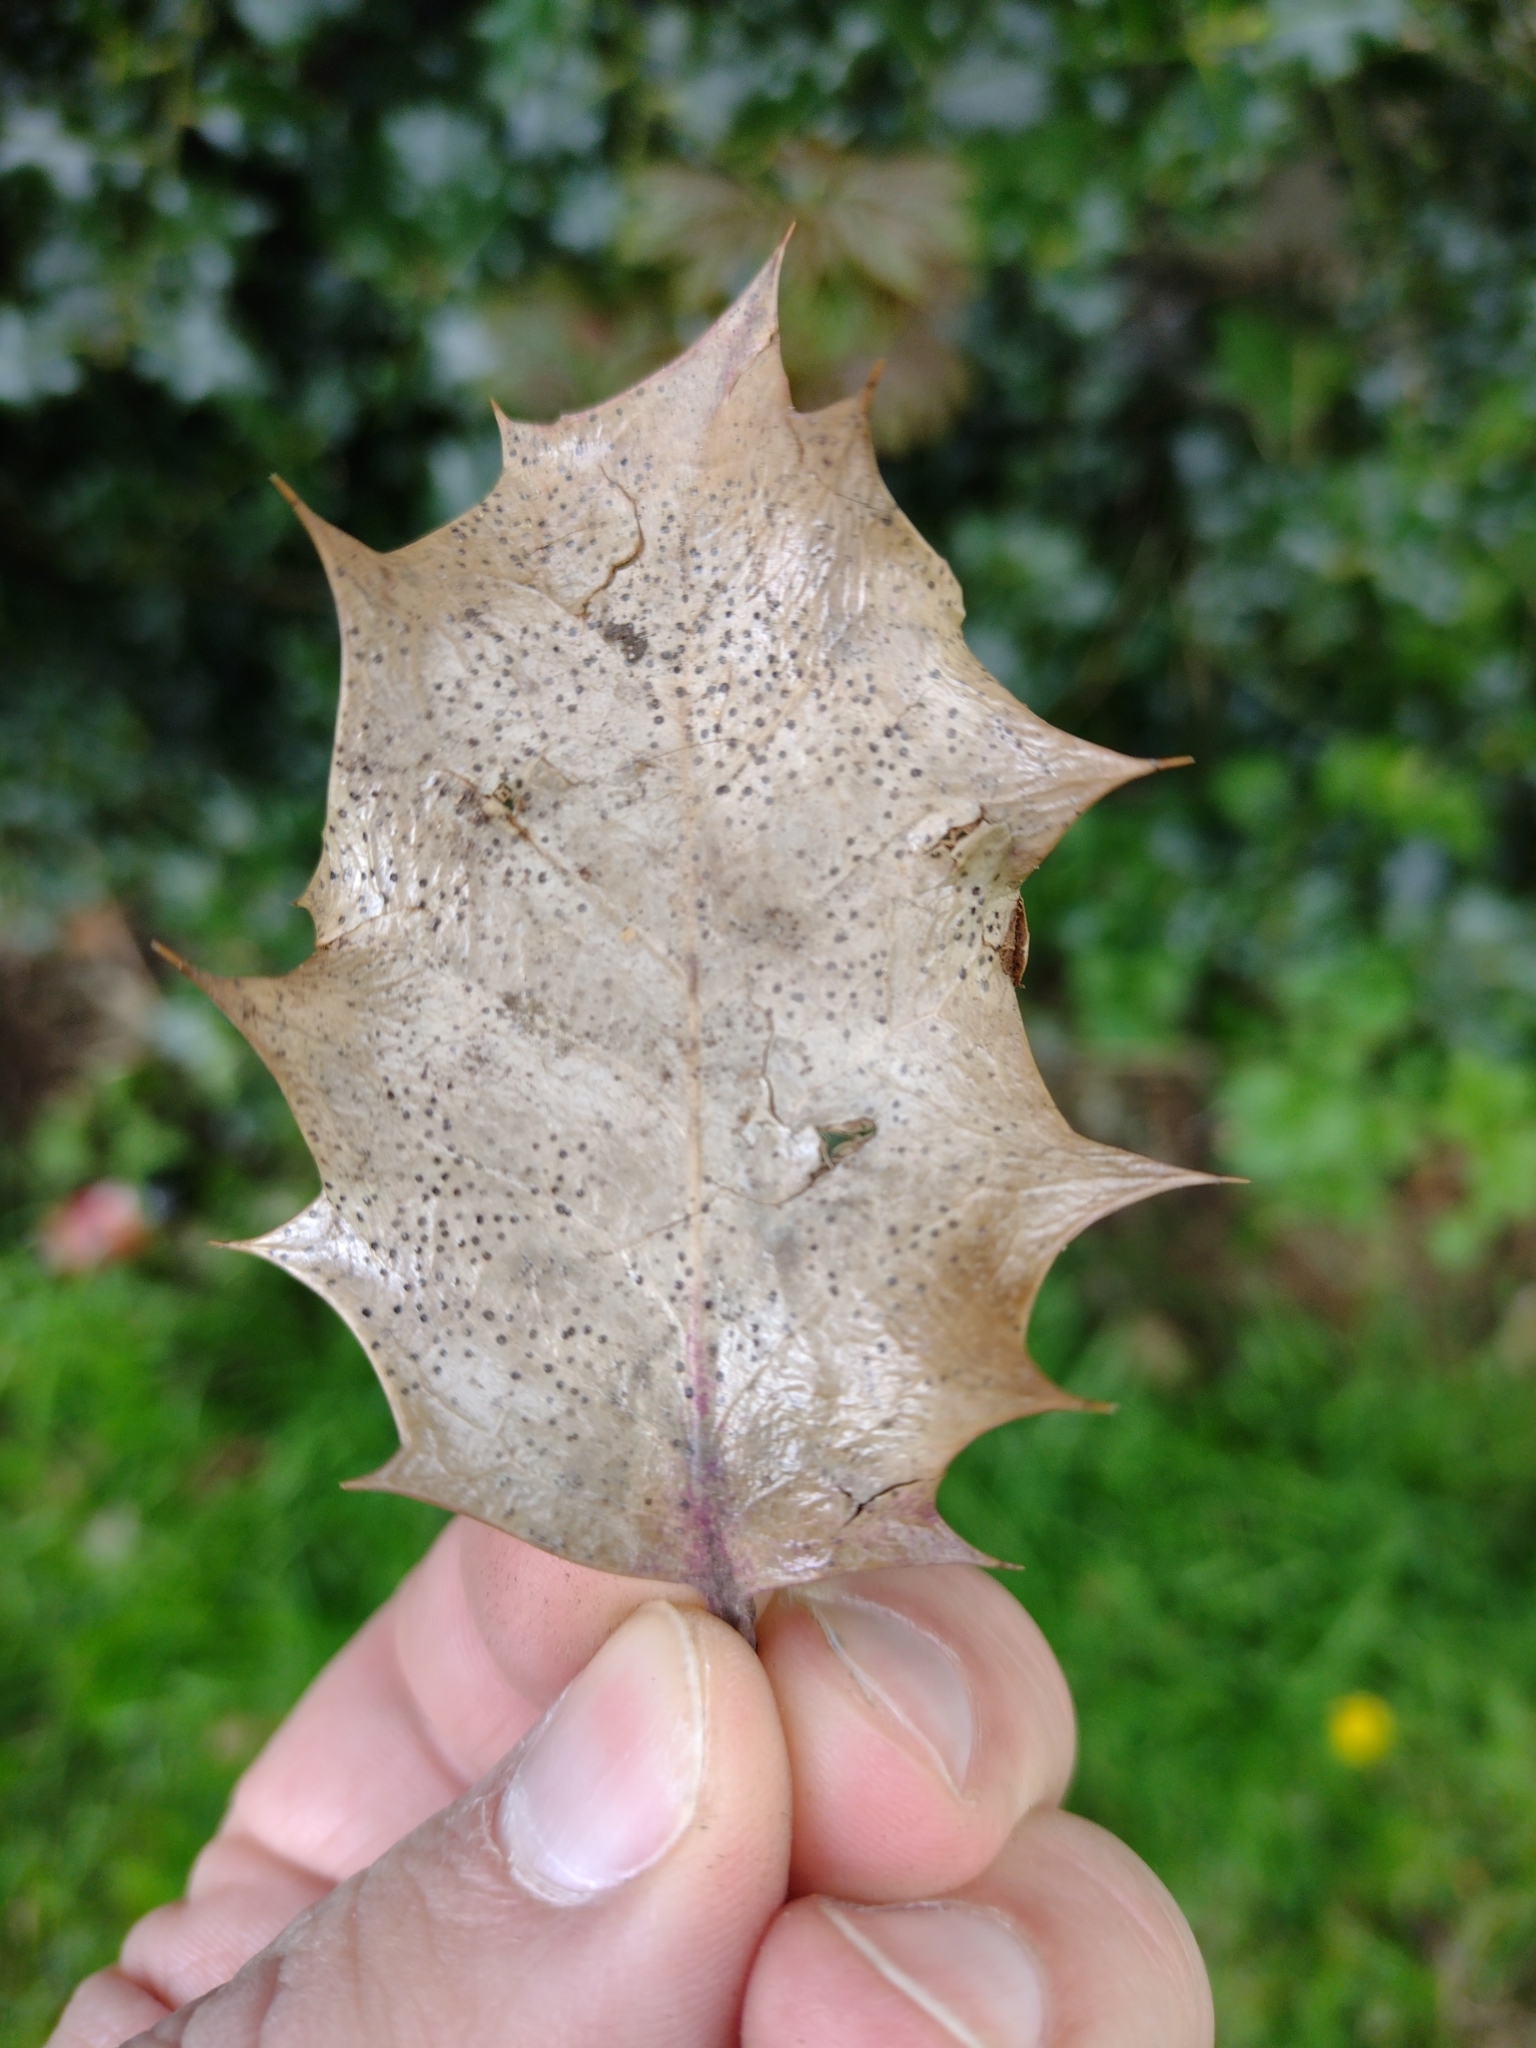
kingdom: Fungi
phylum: Ascomycota
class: Leotiomycetes
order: Helotiales
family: Cenangiaceae
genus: Trochila
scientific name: Trochila ilicina
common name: Holly speckle
